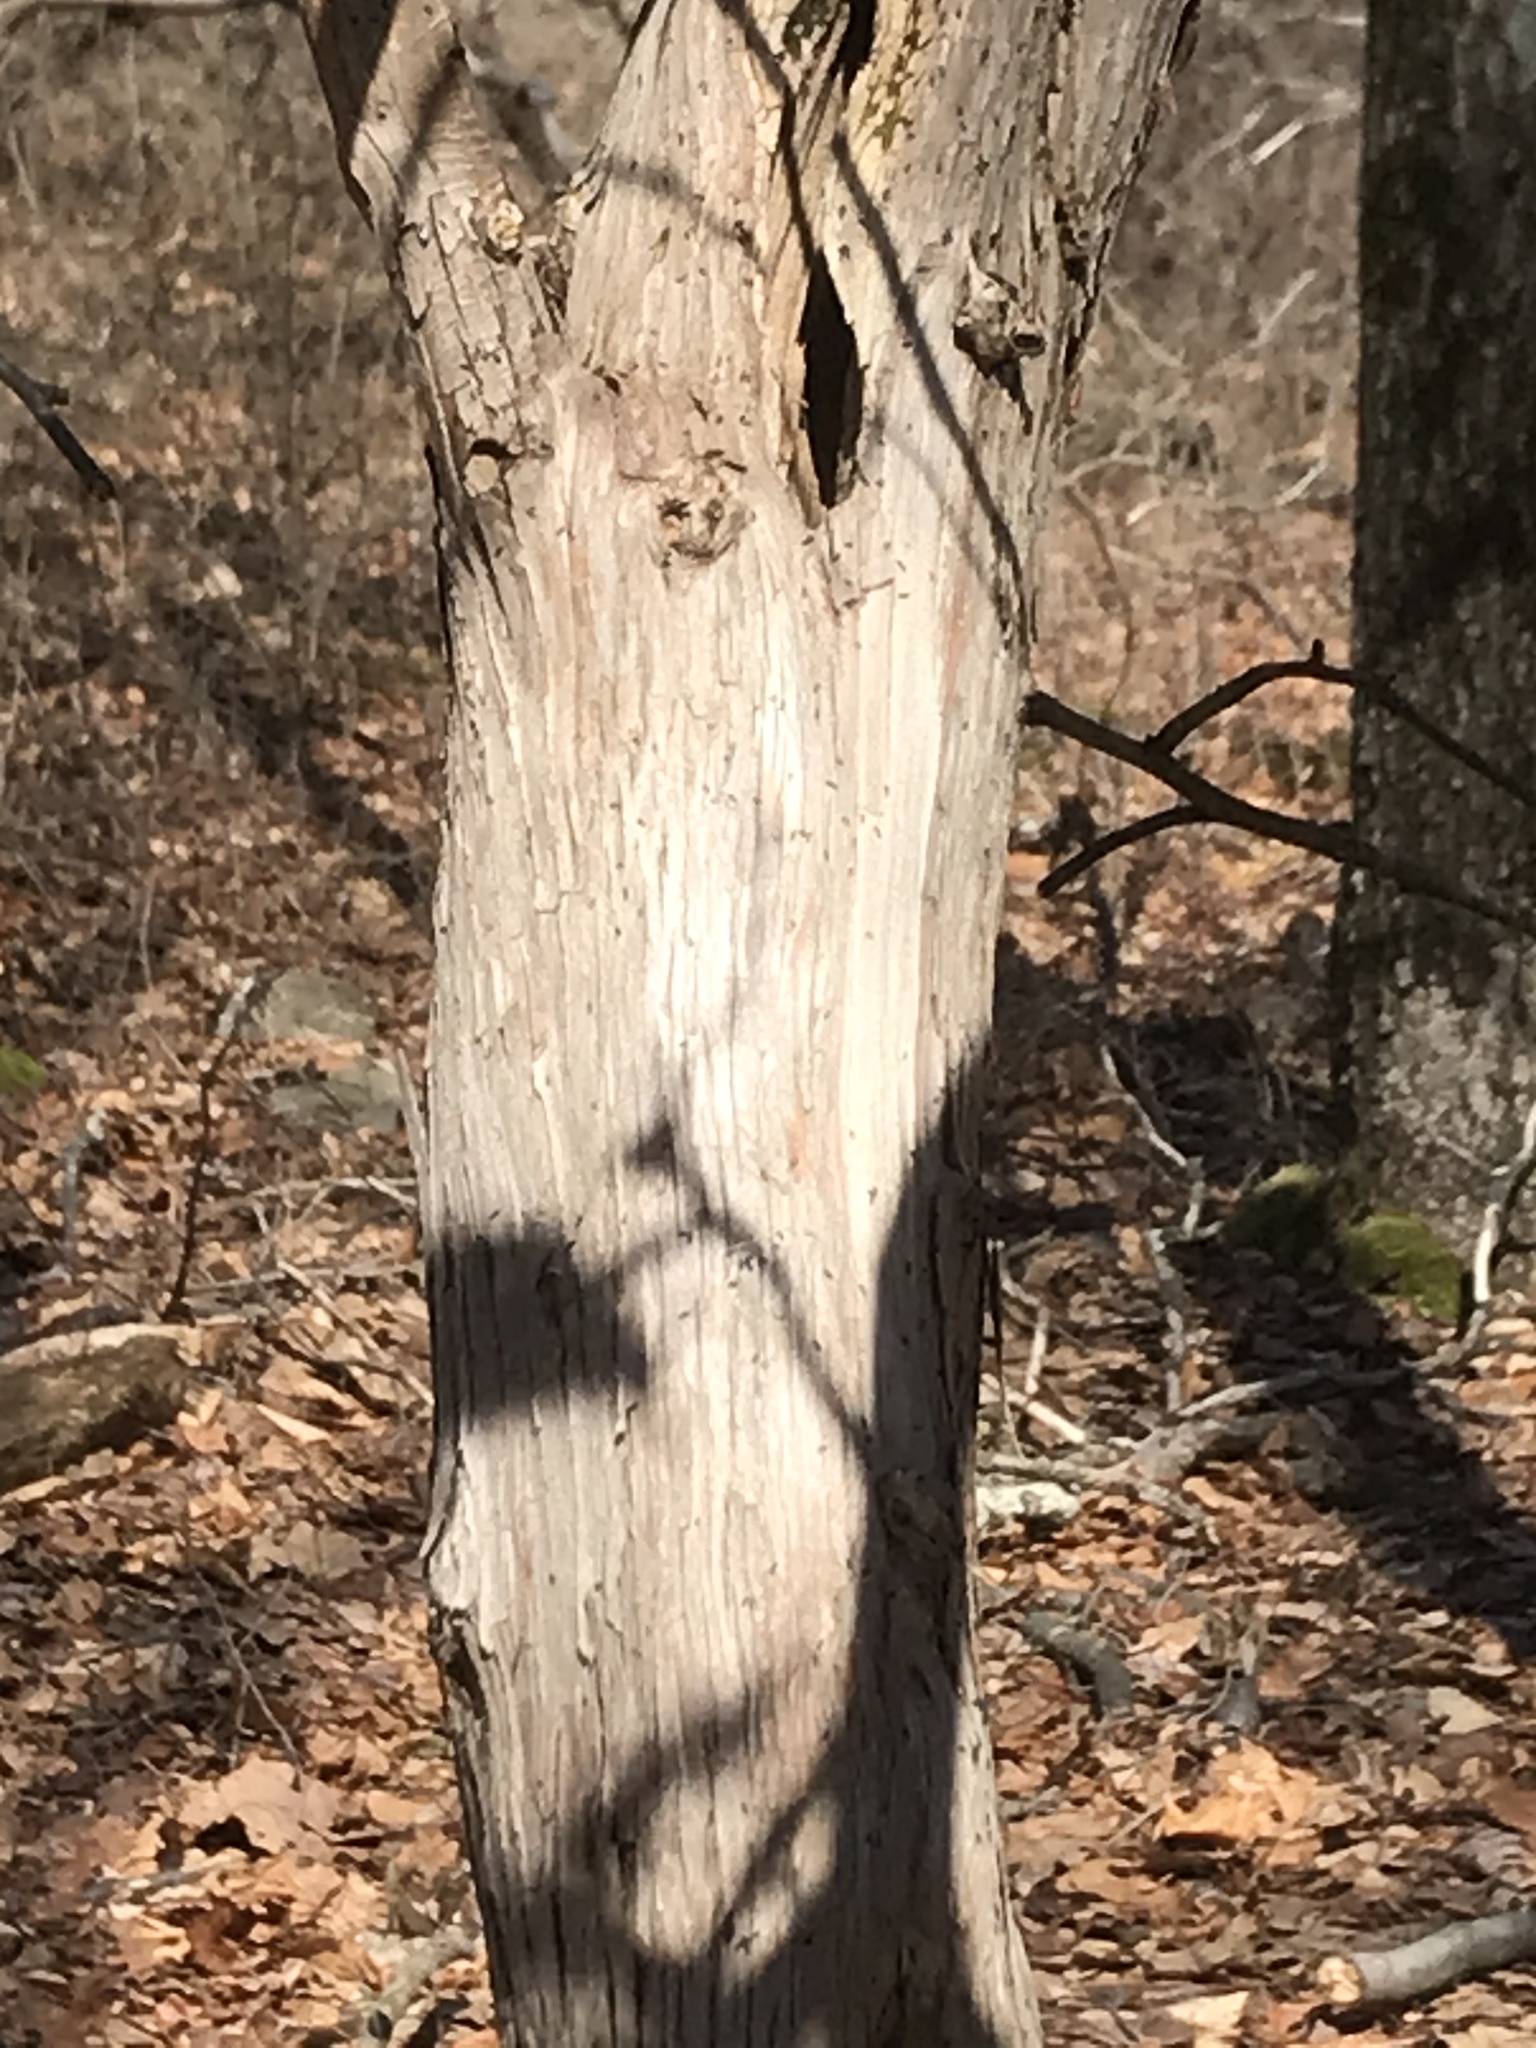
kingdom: Plantae
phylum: Tracheophyta
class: Magnoliopsida
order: Ericales
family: Ericaceae
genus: Kalmia
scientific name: Kalmia latifolia
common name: Mountain-laurel
